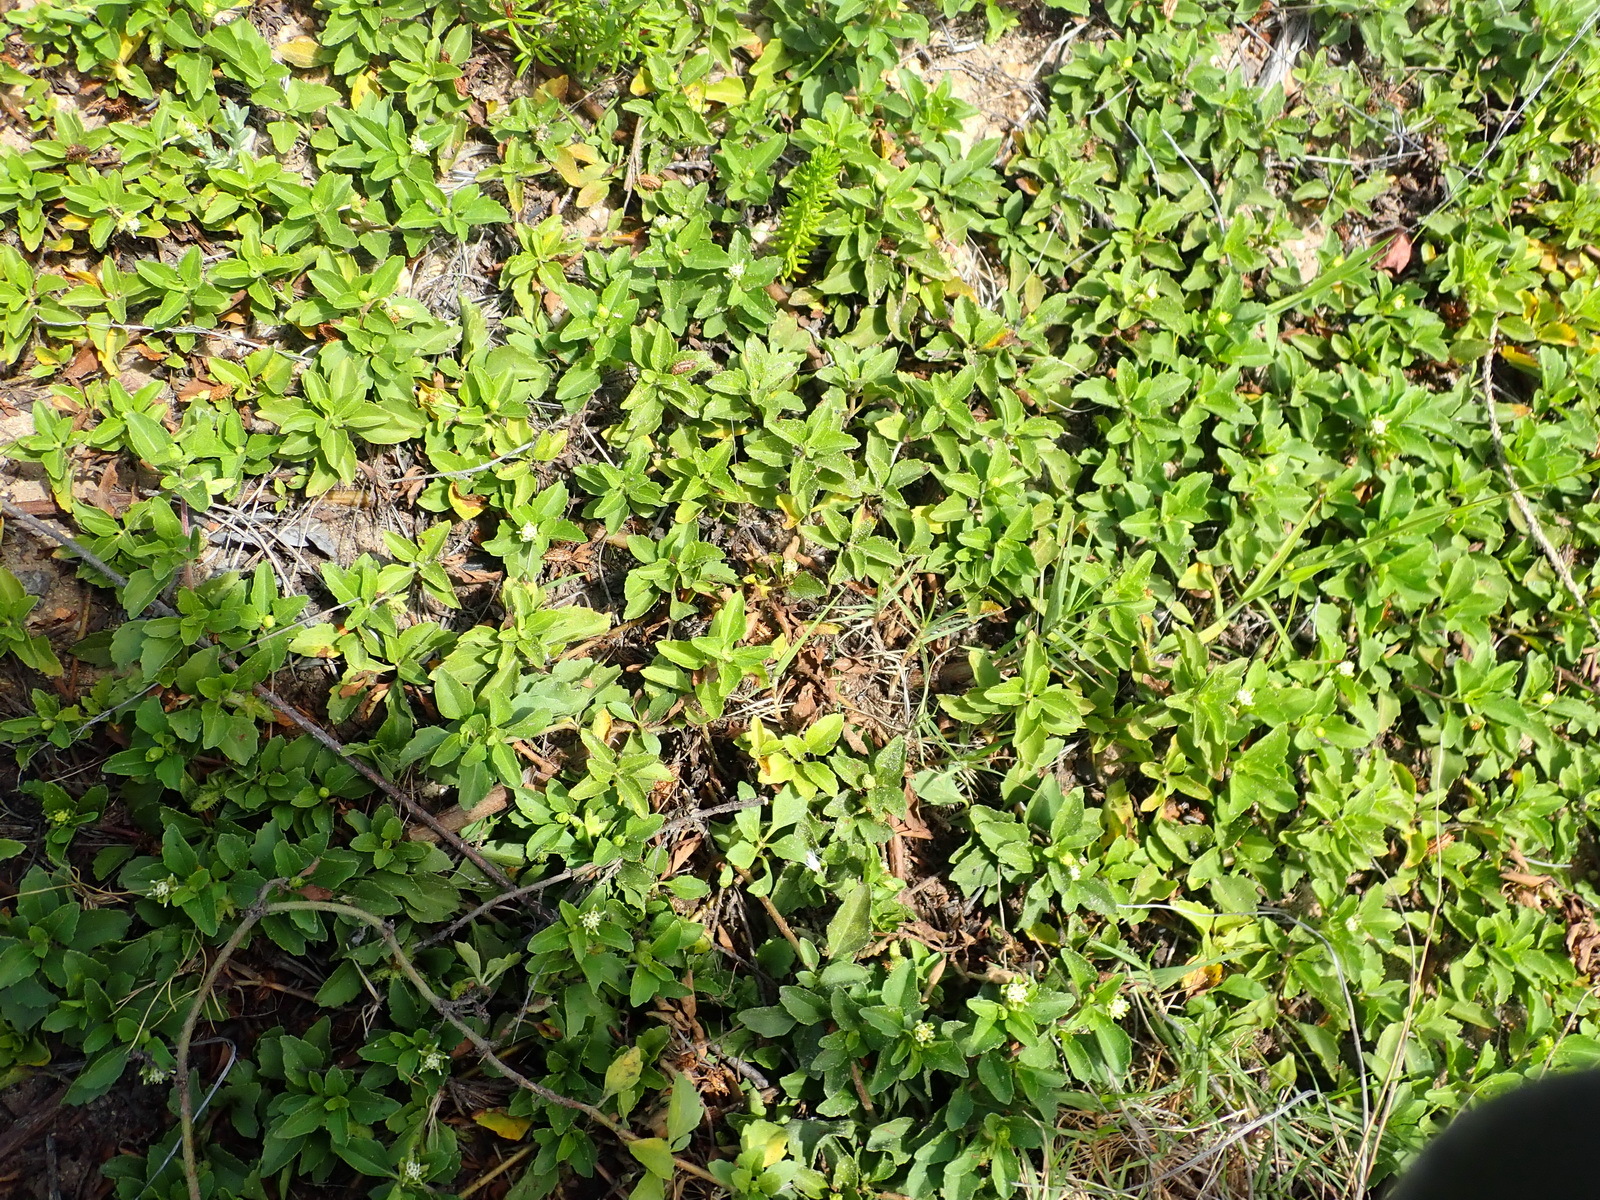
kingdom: Plantae
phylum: Tracheophyta
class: Magnoliopsida
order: Asterales
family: Asteraceae
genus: Acanthospermum
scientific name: Acanthospermum australe
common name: Paraguayan starbur
